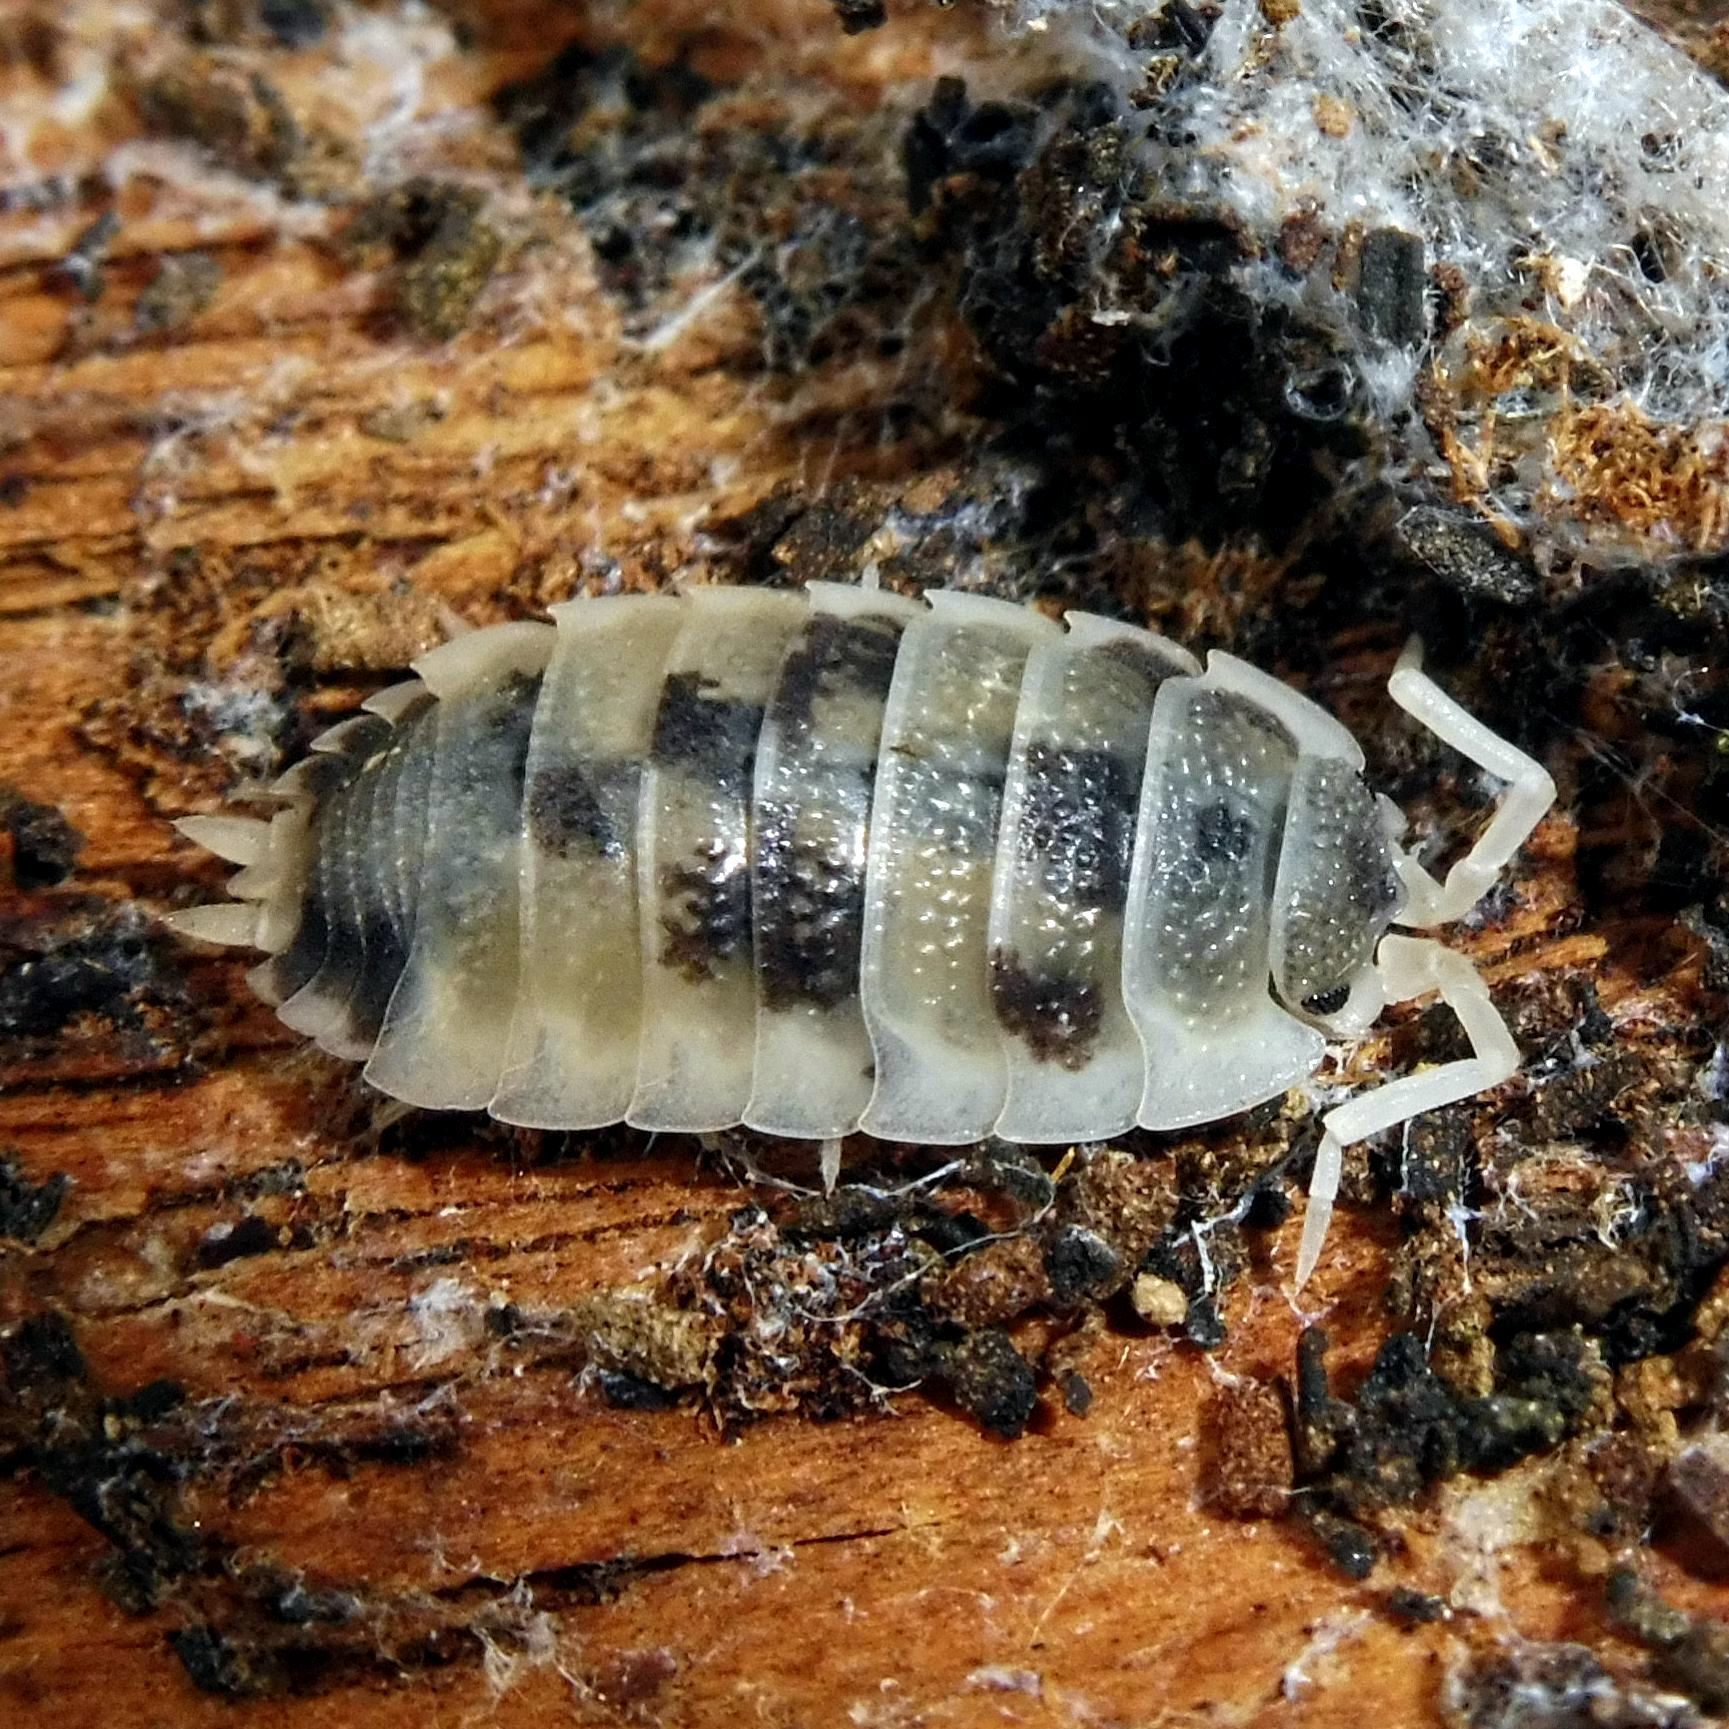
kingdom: Animalia
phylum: Arthropoda
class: Malacostraca
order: Isopoda
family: Porcellionidae
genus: Porcellio
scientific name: Porcellio scaber
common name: Common rough woodlouse
